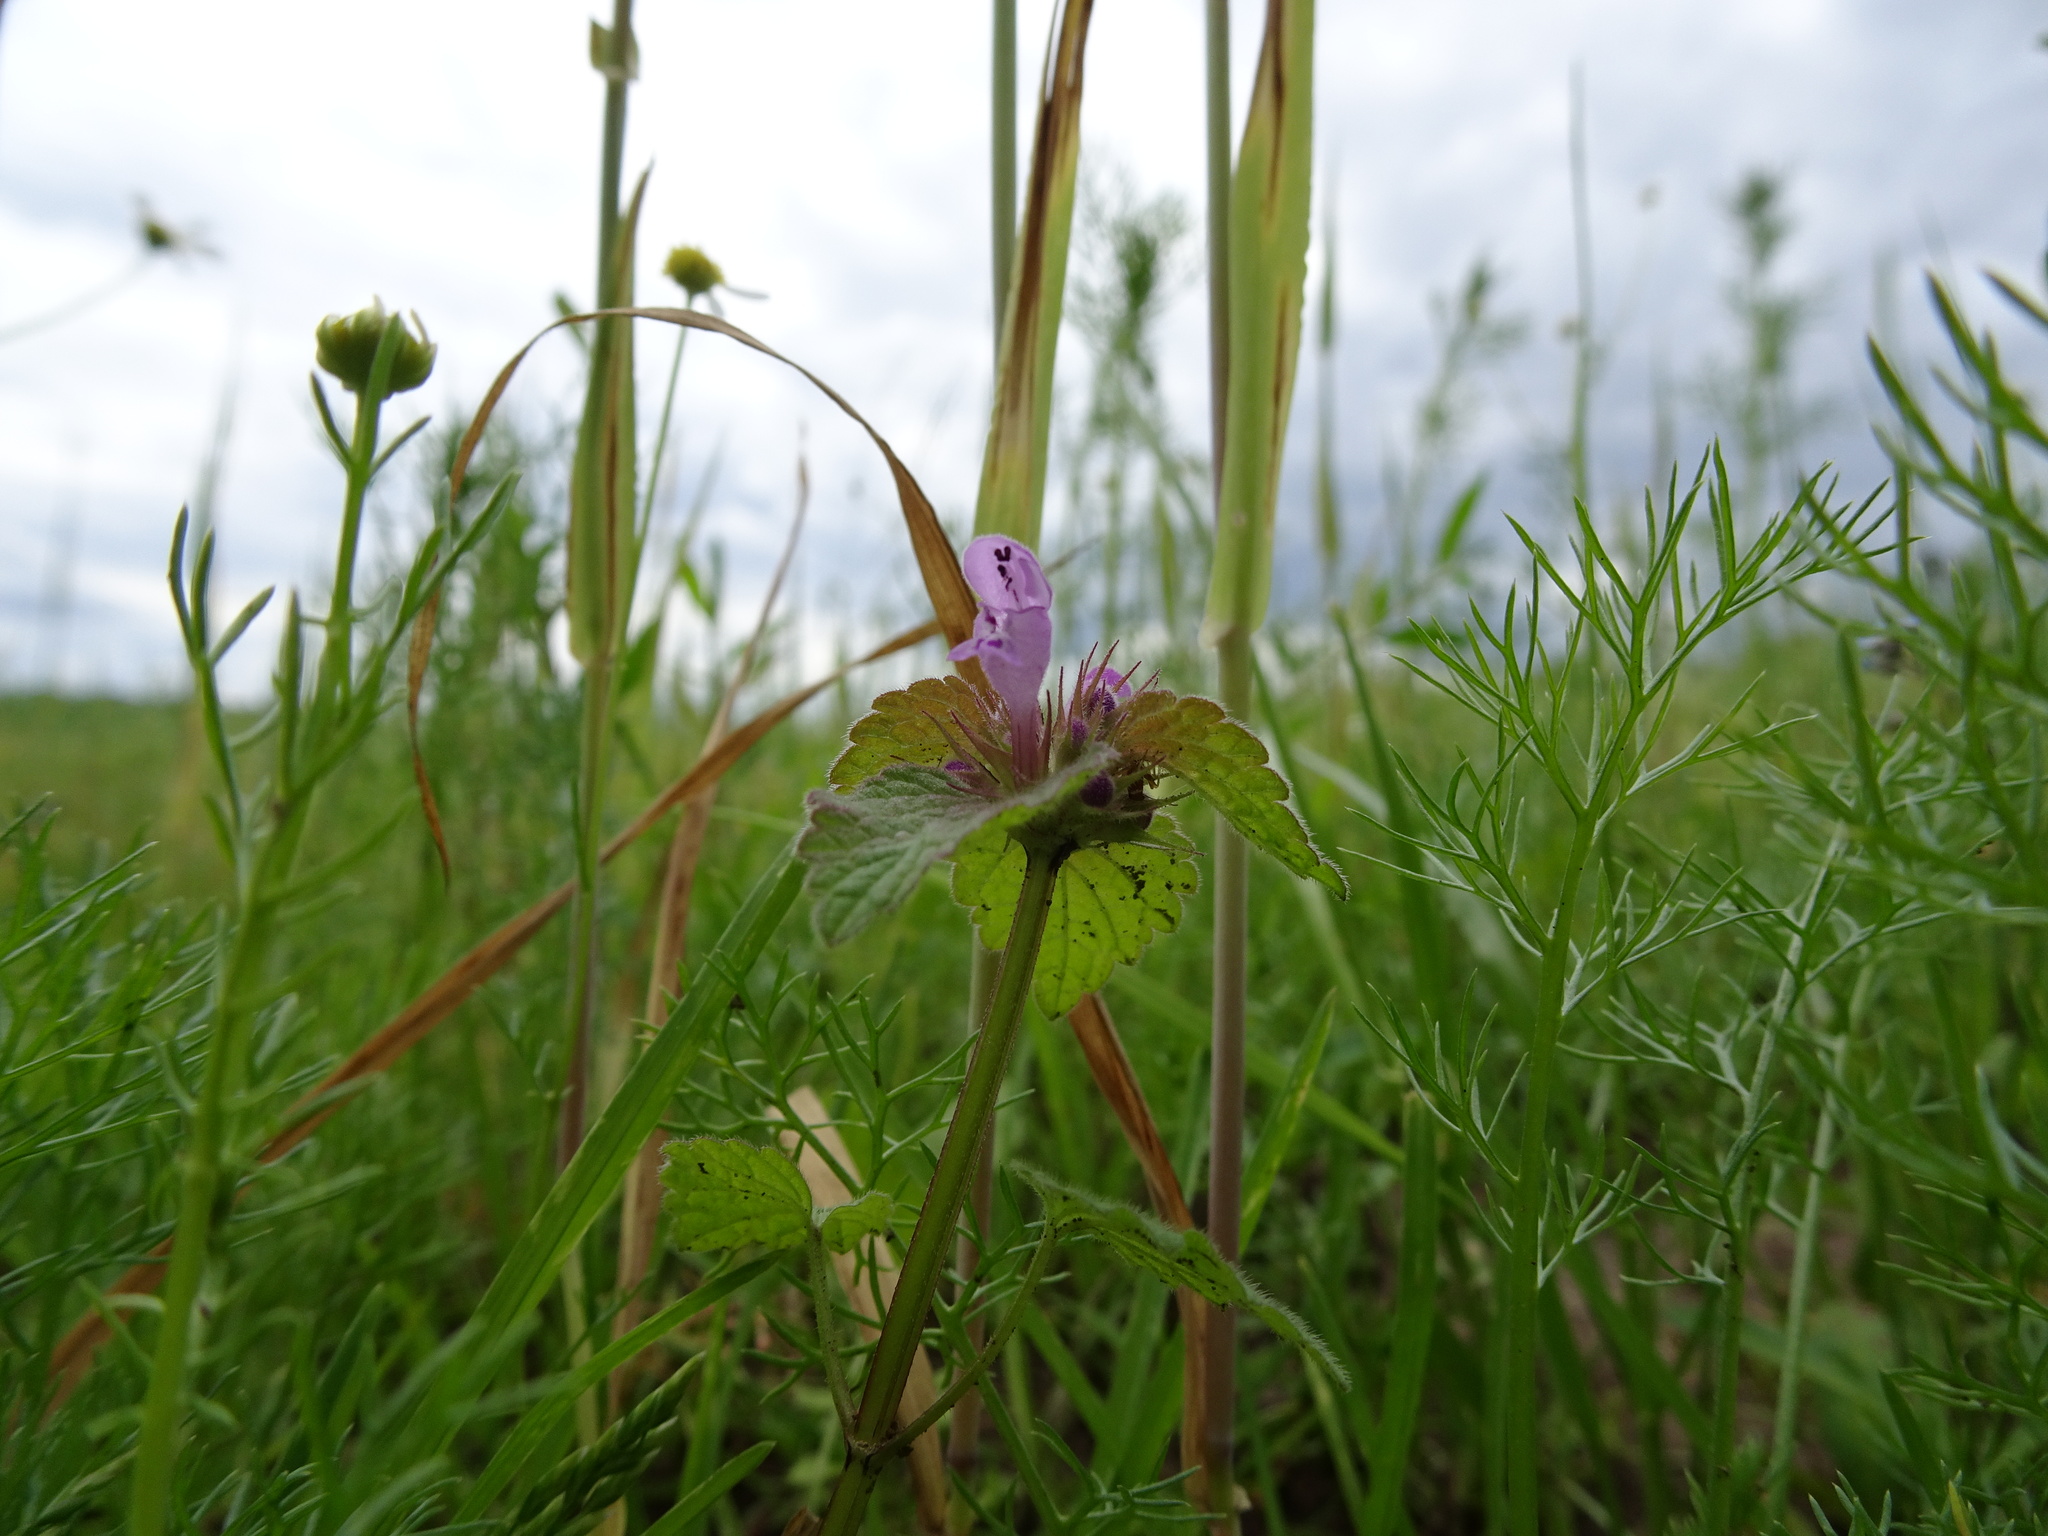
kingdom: Plantae
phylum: Tracheophyta
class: Magnoliopsida
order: Lamiales
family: Lamiaceae
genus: Lamium
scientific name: Lamium purpureum
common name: Red dead-nettle
